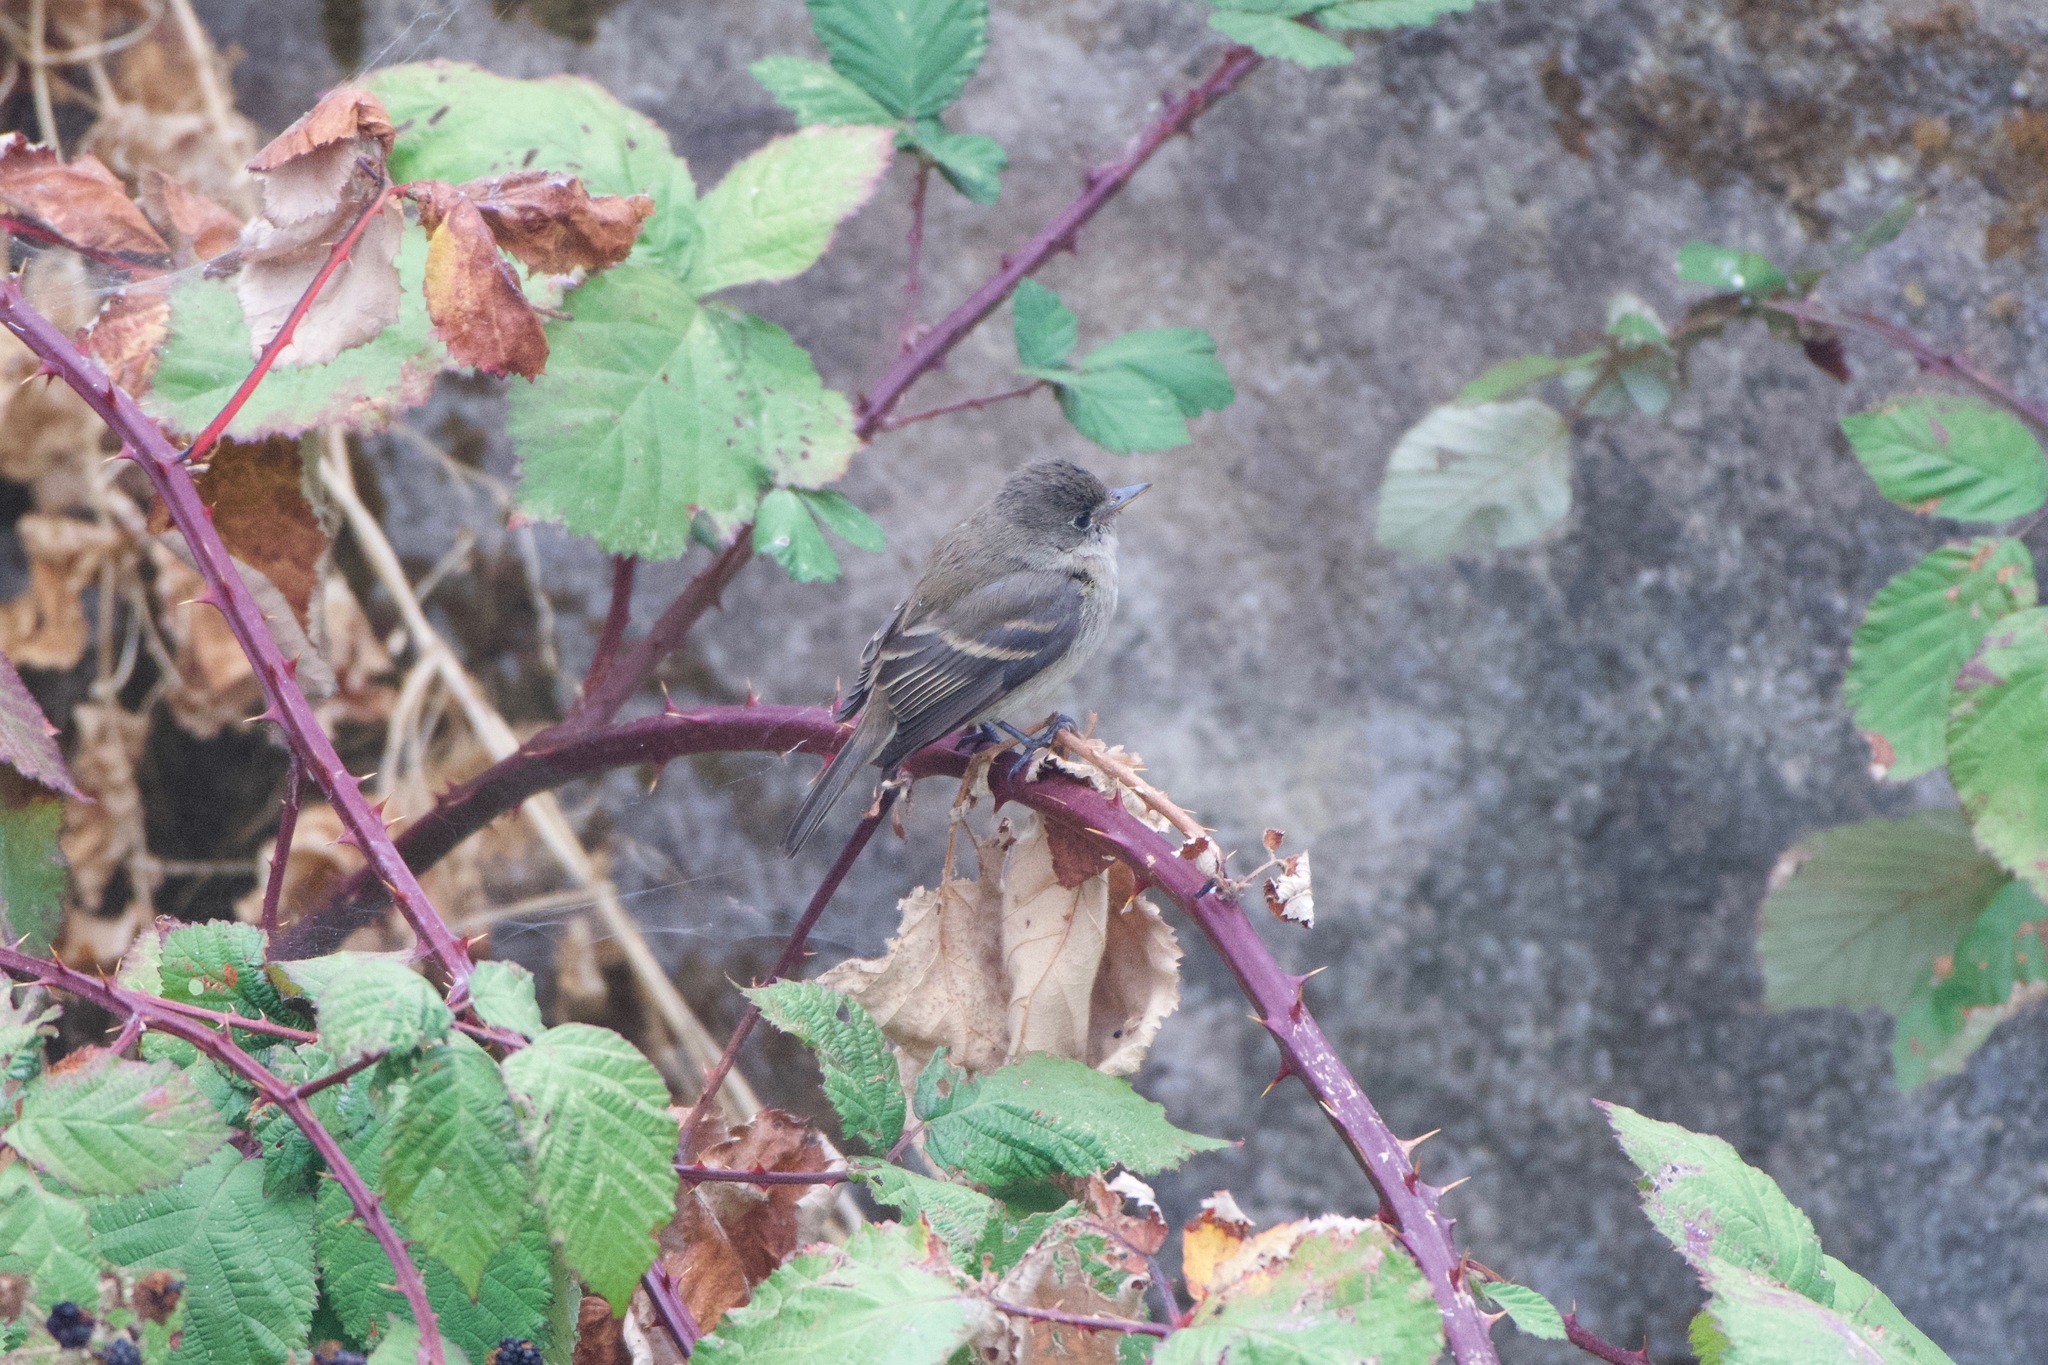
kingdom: Animalia
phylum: Chordata
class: Aves
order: Passeriformes
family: Tyrannidae
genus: Empidonax
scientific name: Empidonax traillii
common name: Willow flycatcher
